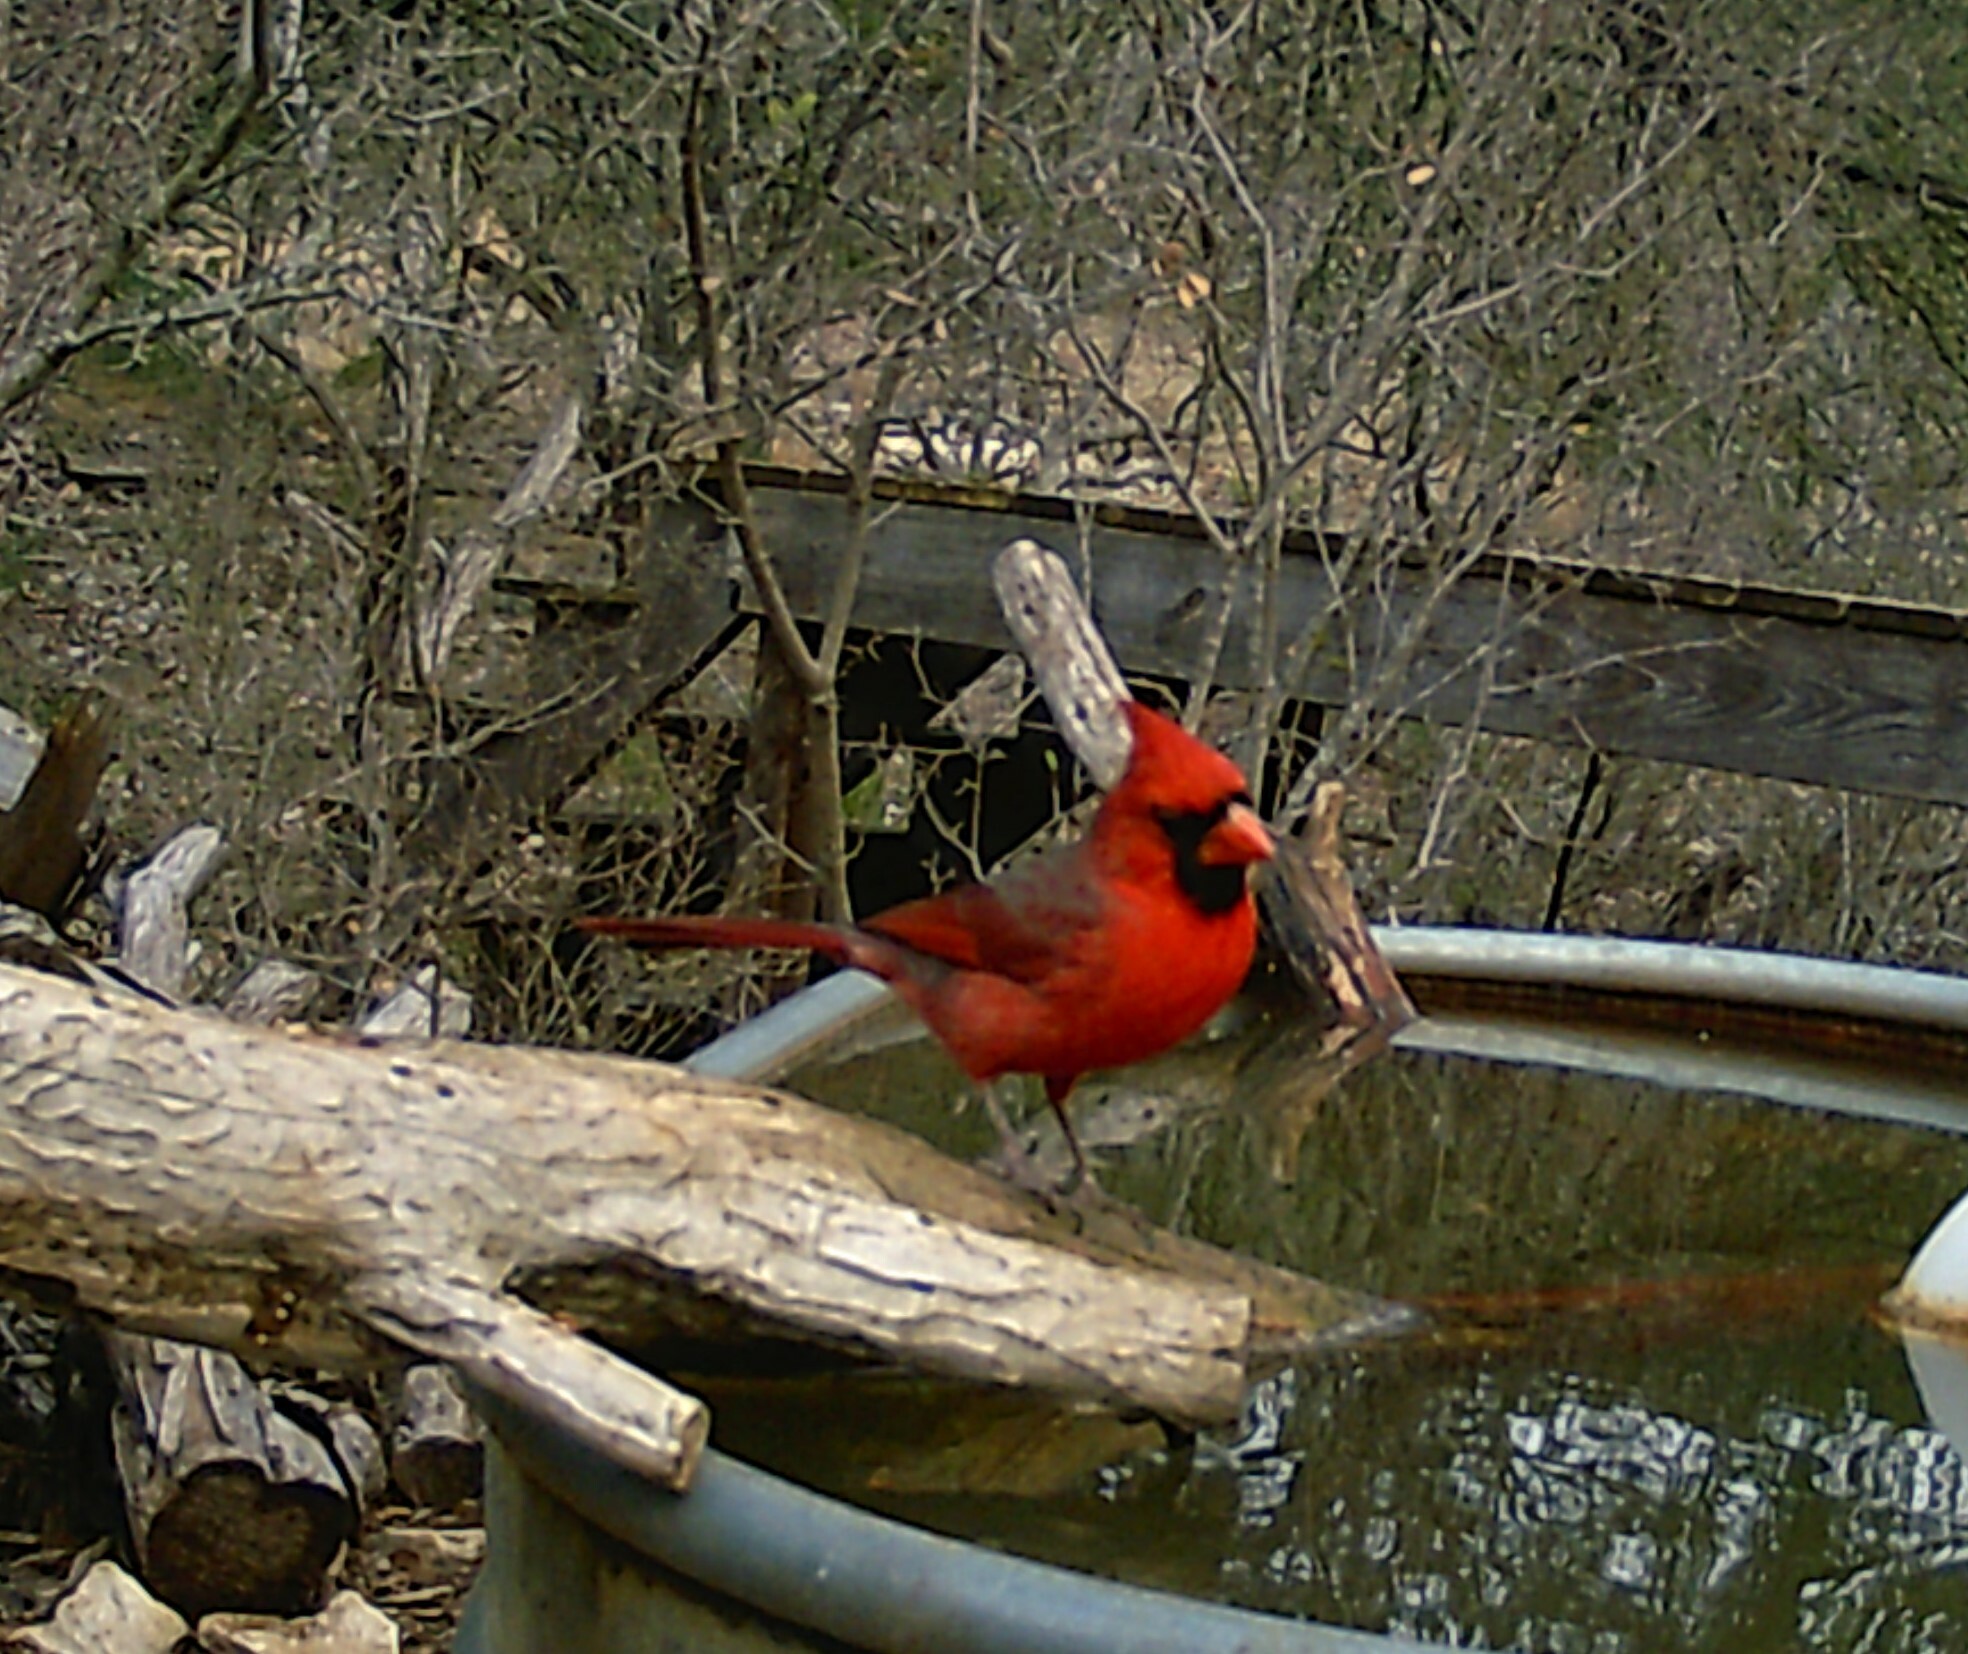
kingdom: Animalia
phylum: Chordata
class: Aves
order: Passeriformes
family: Cardinalidae
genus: Cardinalis
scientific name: Cardinalis cardinalis
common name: Northern cardinal
